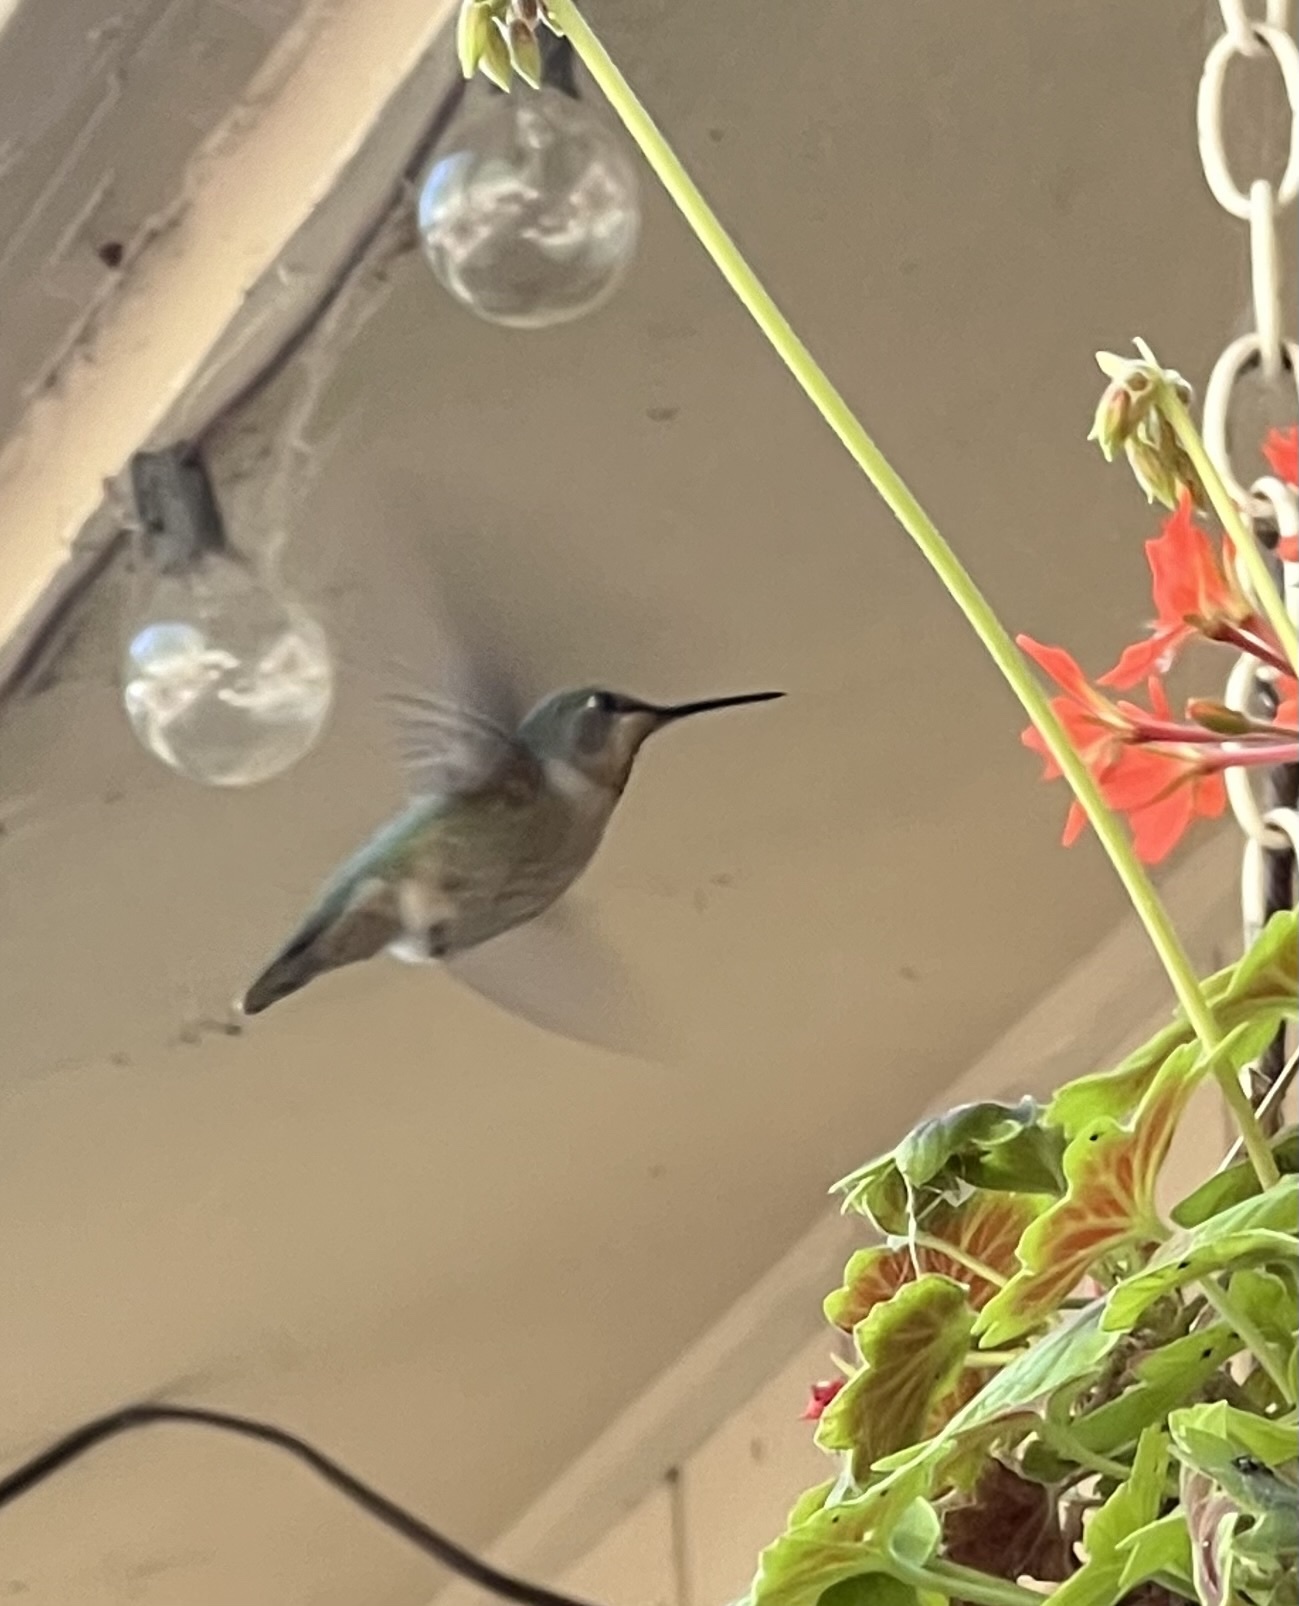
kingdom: Animalia
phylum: Chordata
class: Aves
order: Apodiformes
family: Trochilidae
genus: Calypte
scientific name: Calypte anna
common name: Anna's hummingbird
